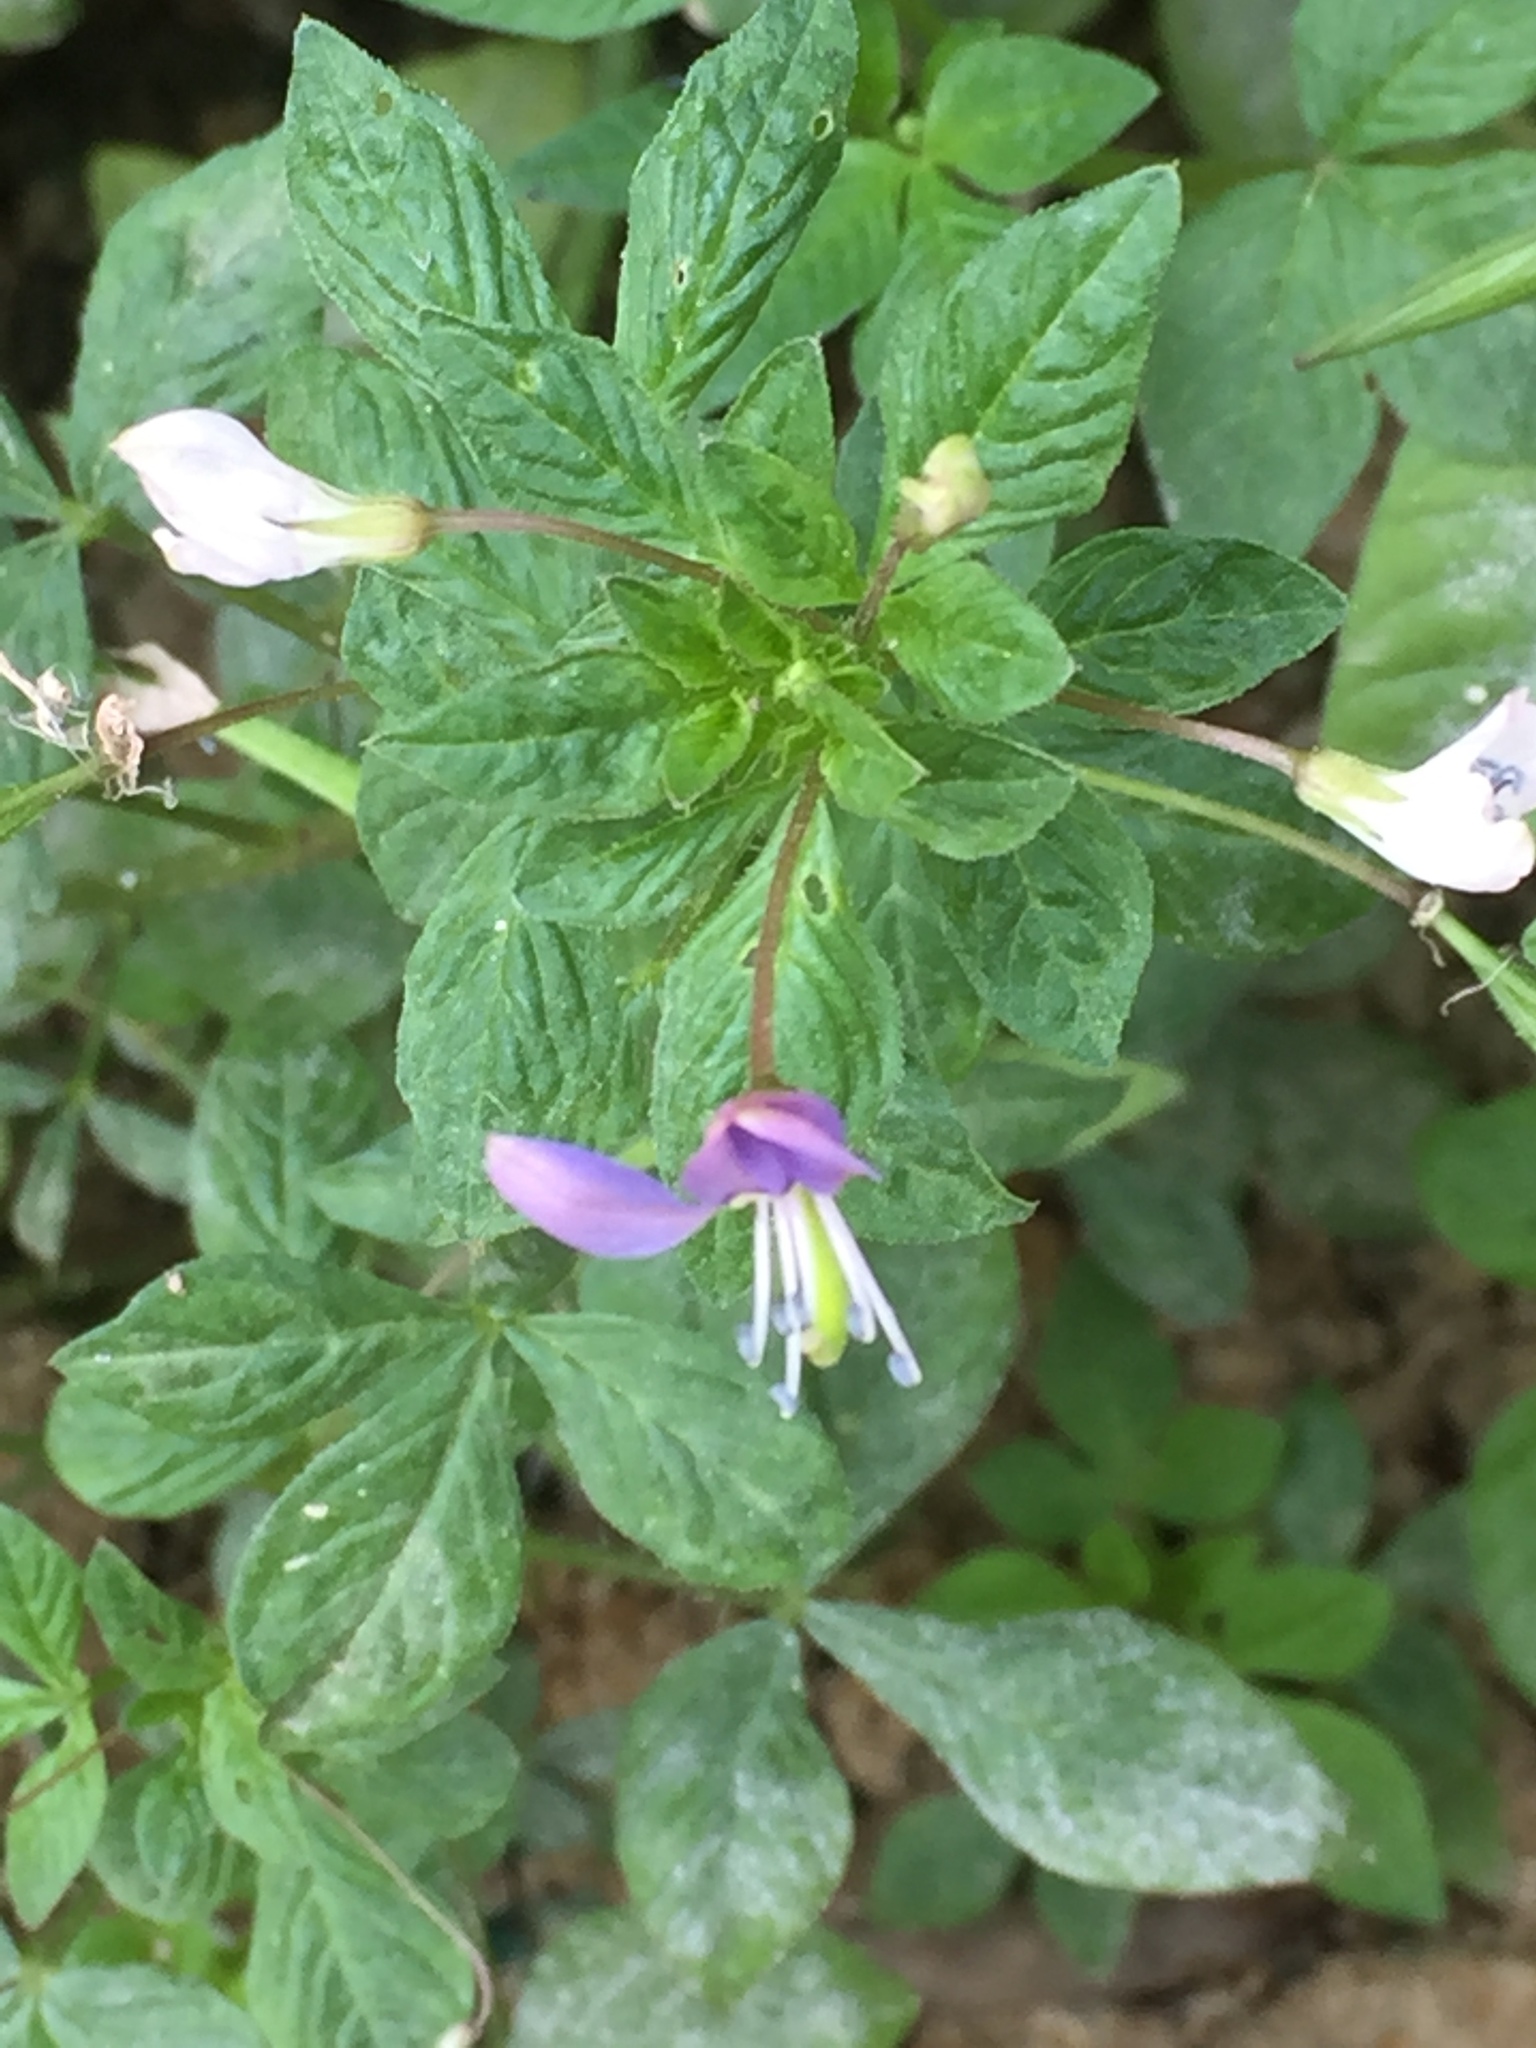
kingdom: Plantae
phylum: Tracheophyta
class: Magnoliopsida
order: Brassicales
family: Cleomaceae
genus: Sieruela
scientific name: Sieruela rutidosperma
